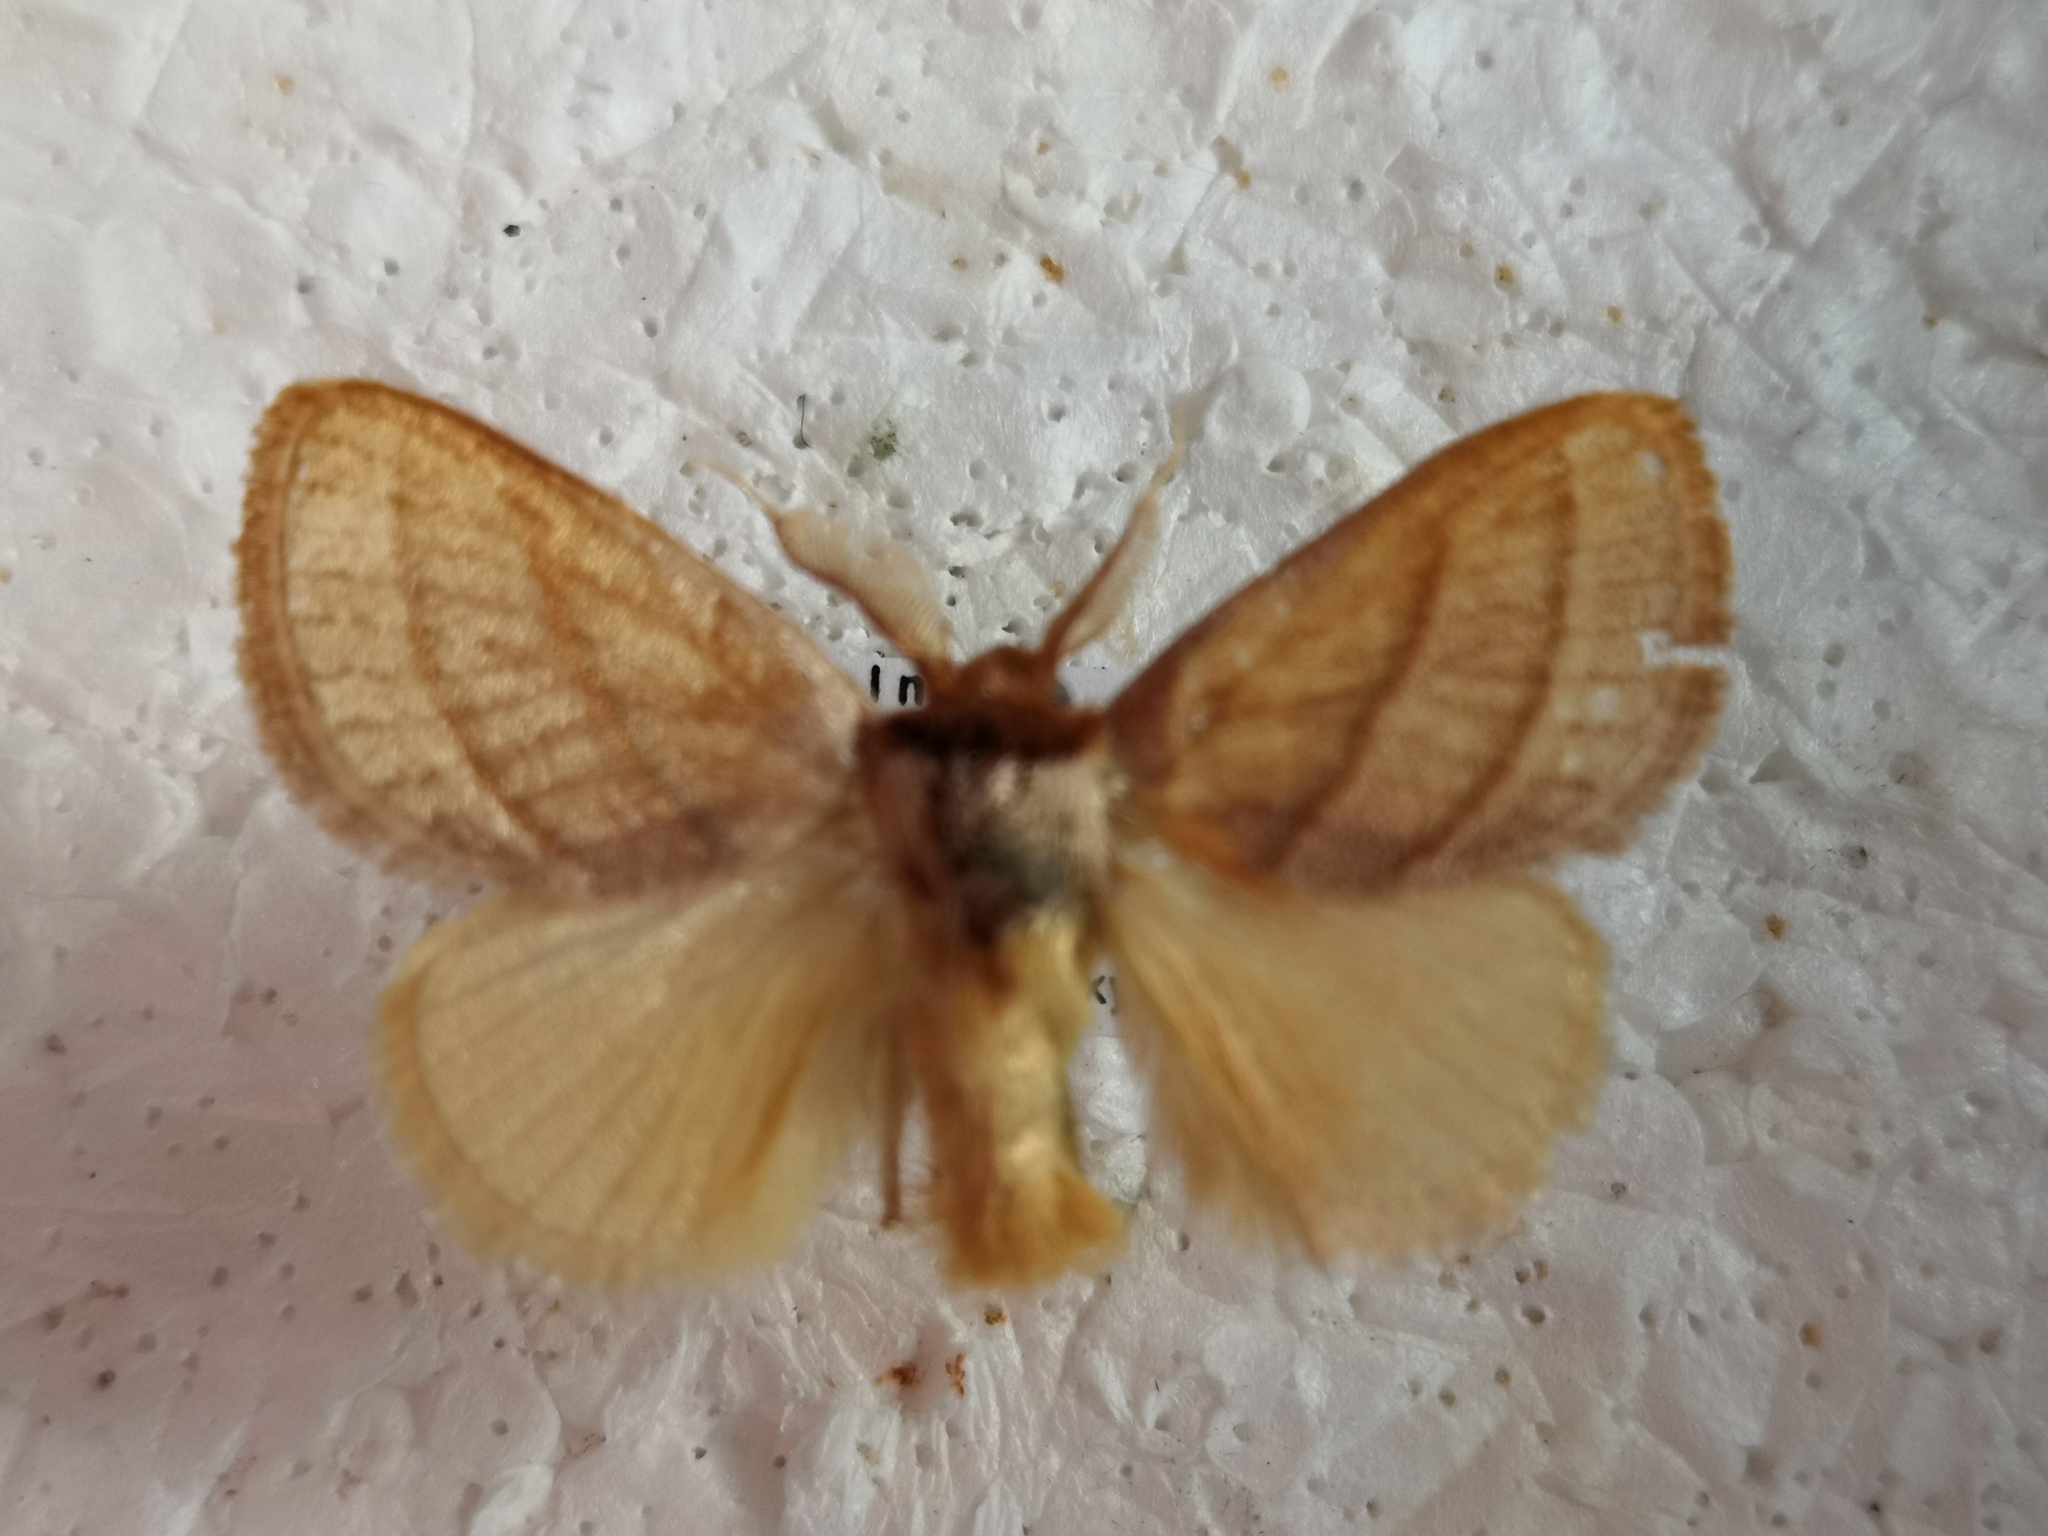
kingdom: Animalia
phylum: Arthropoda
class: Insecta
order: Lepidoptera
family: Limacodidae
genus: Cania
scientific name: Cania bilinea
